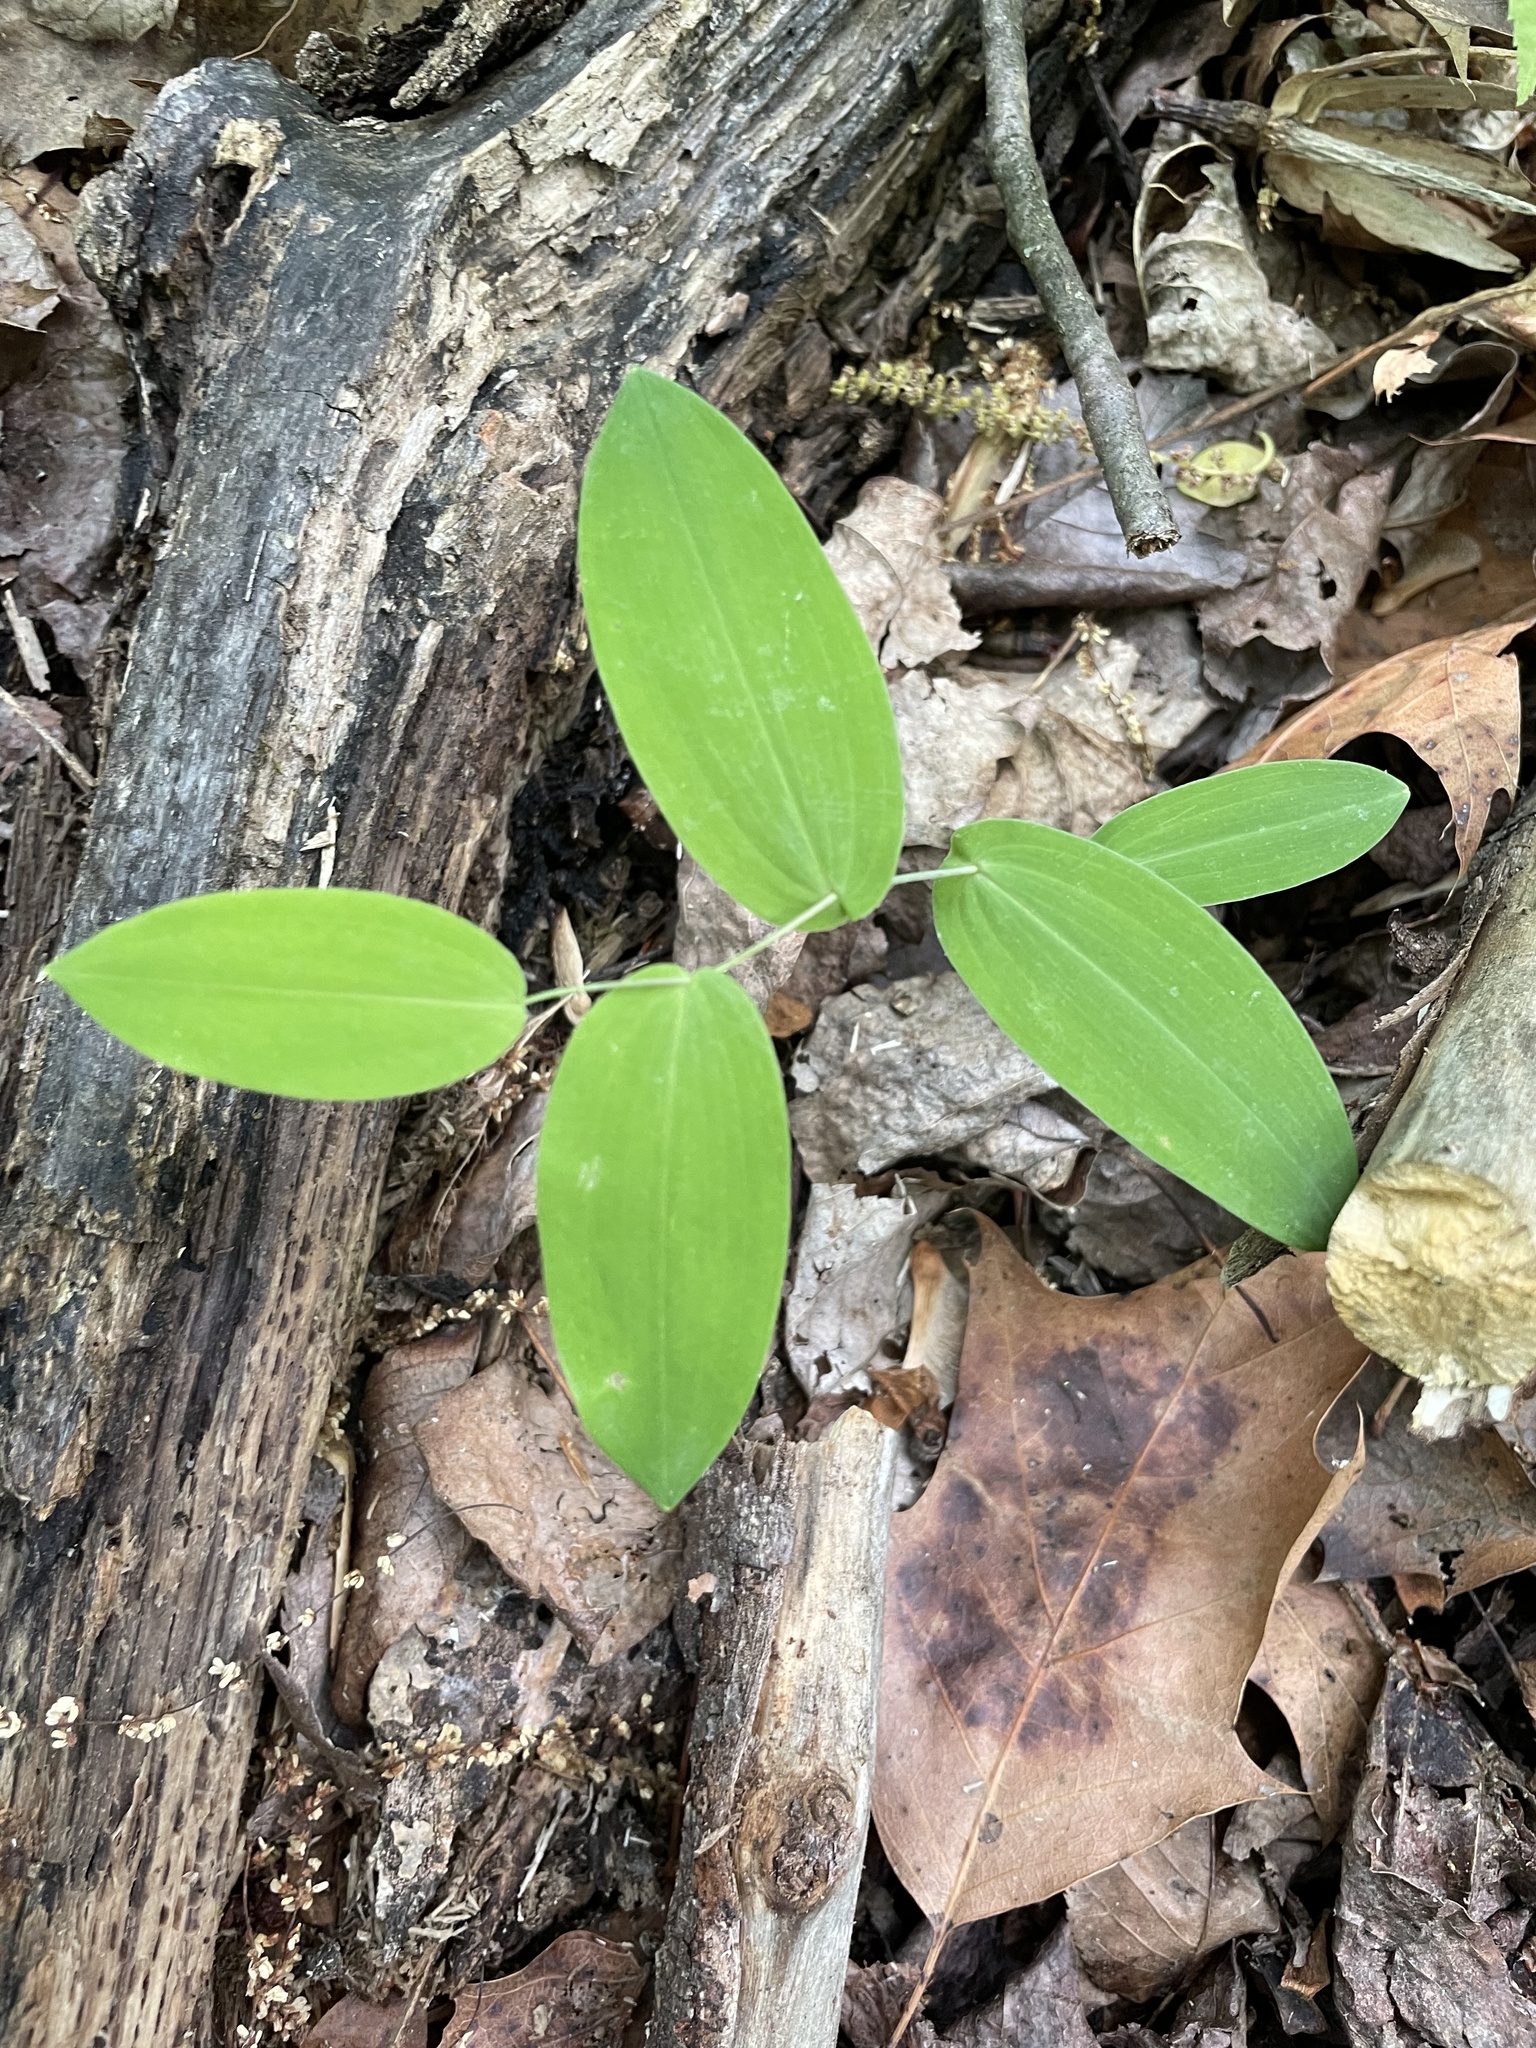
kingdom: Plantae
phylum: Tracheophyta
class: Liliopsida
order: Liliales
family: Colchicaceae
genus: Uvularia
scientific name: Uvularia perfoliata
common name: Perfoliate bellwort
